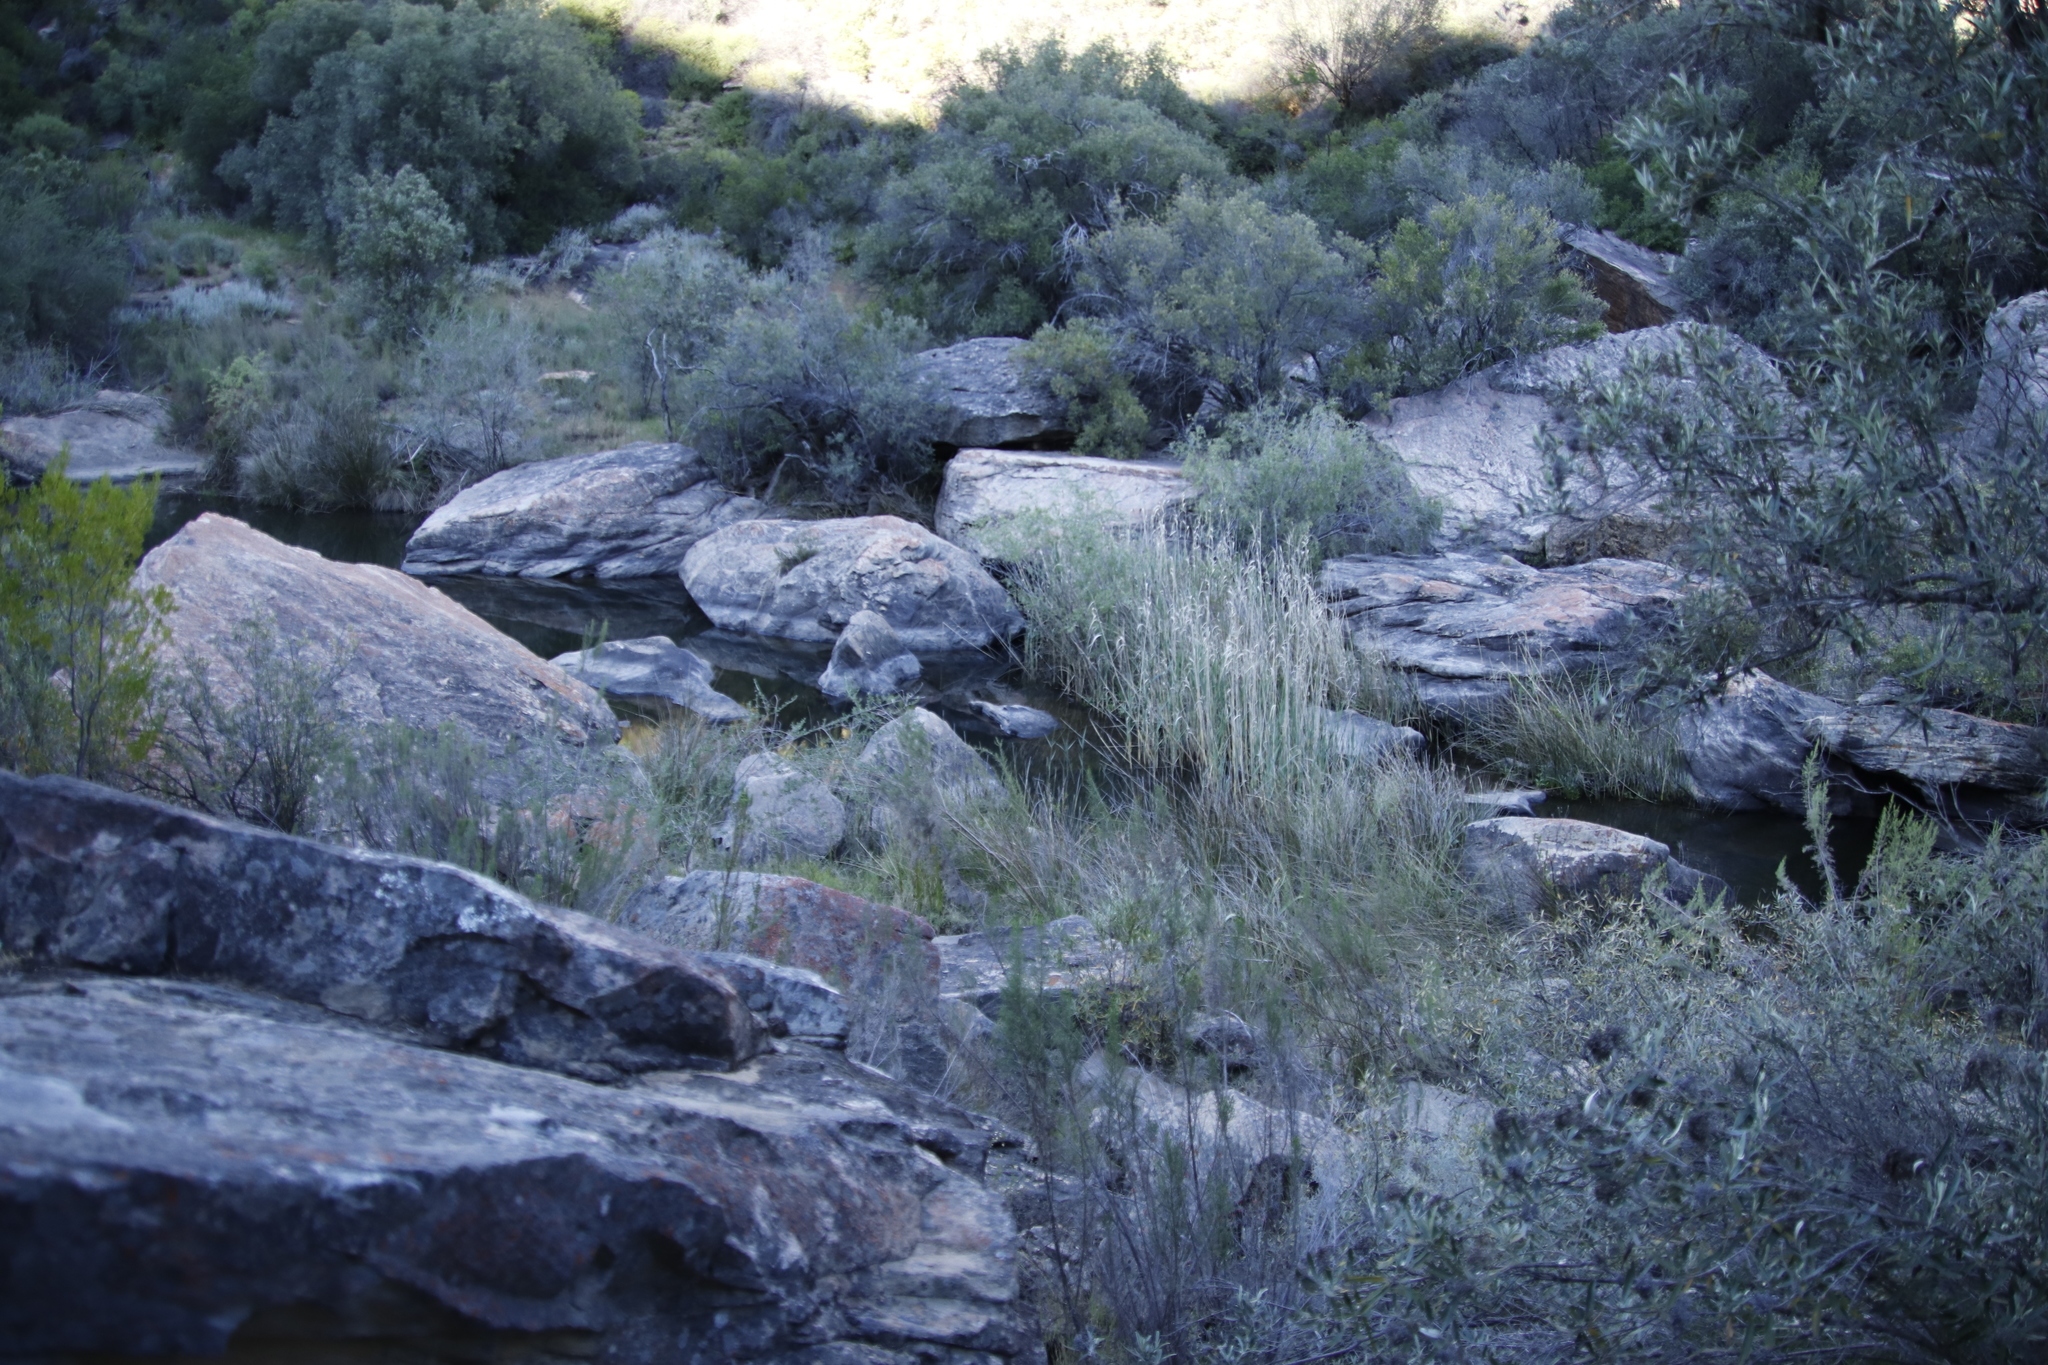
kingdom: Plantae
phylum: Tracheophyta
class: Liliopsida
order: Poales
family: Poaceae
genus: Phragmites
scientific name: Phragmites australis
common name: Common reed
